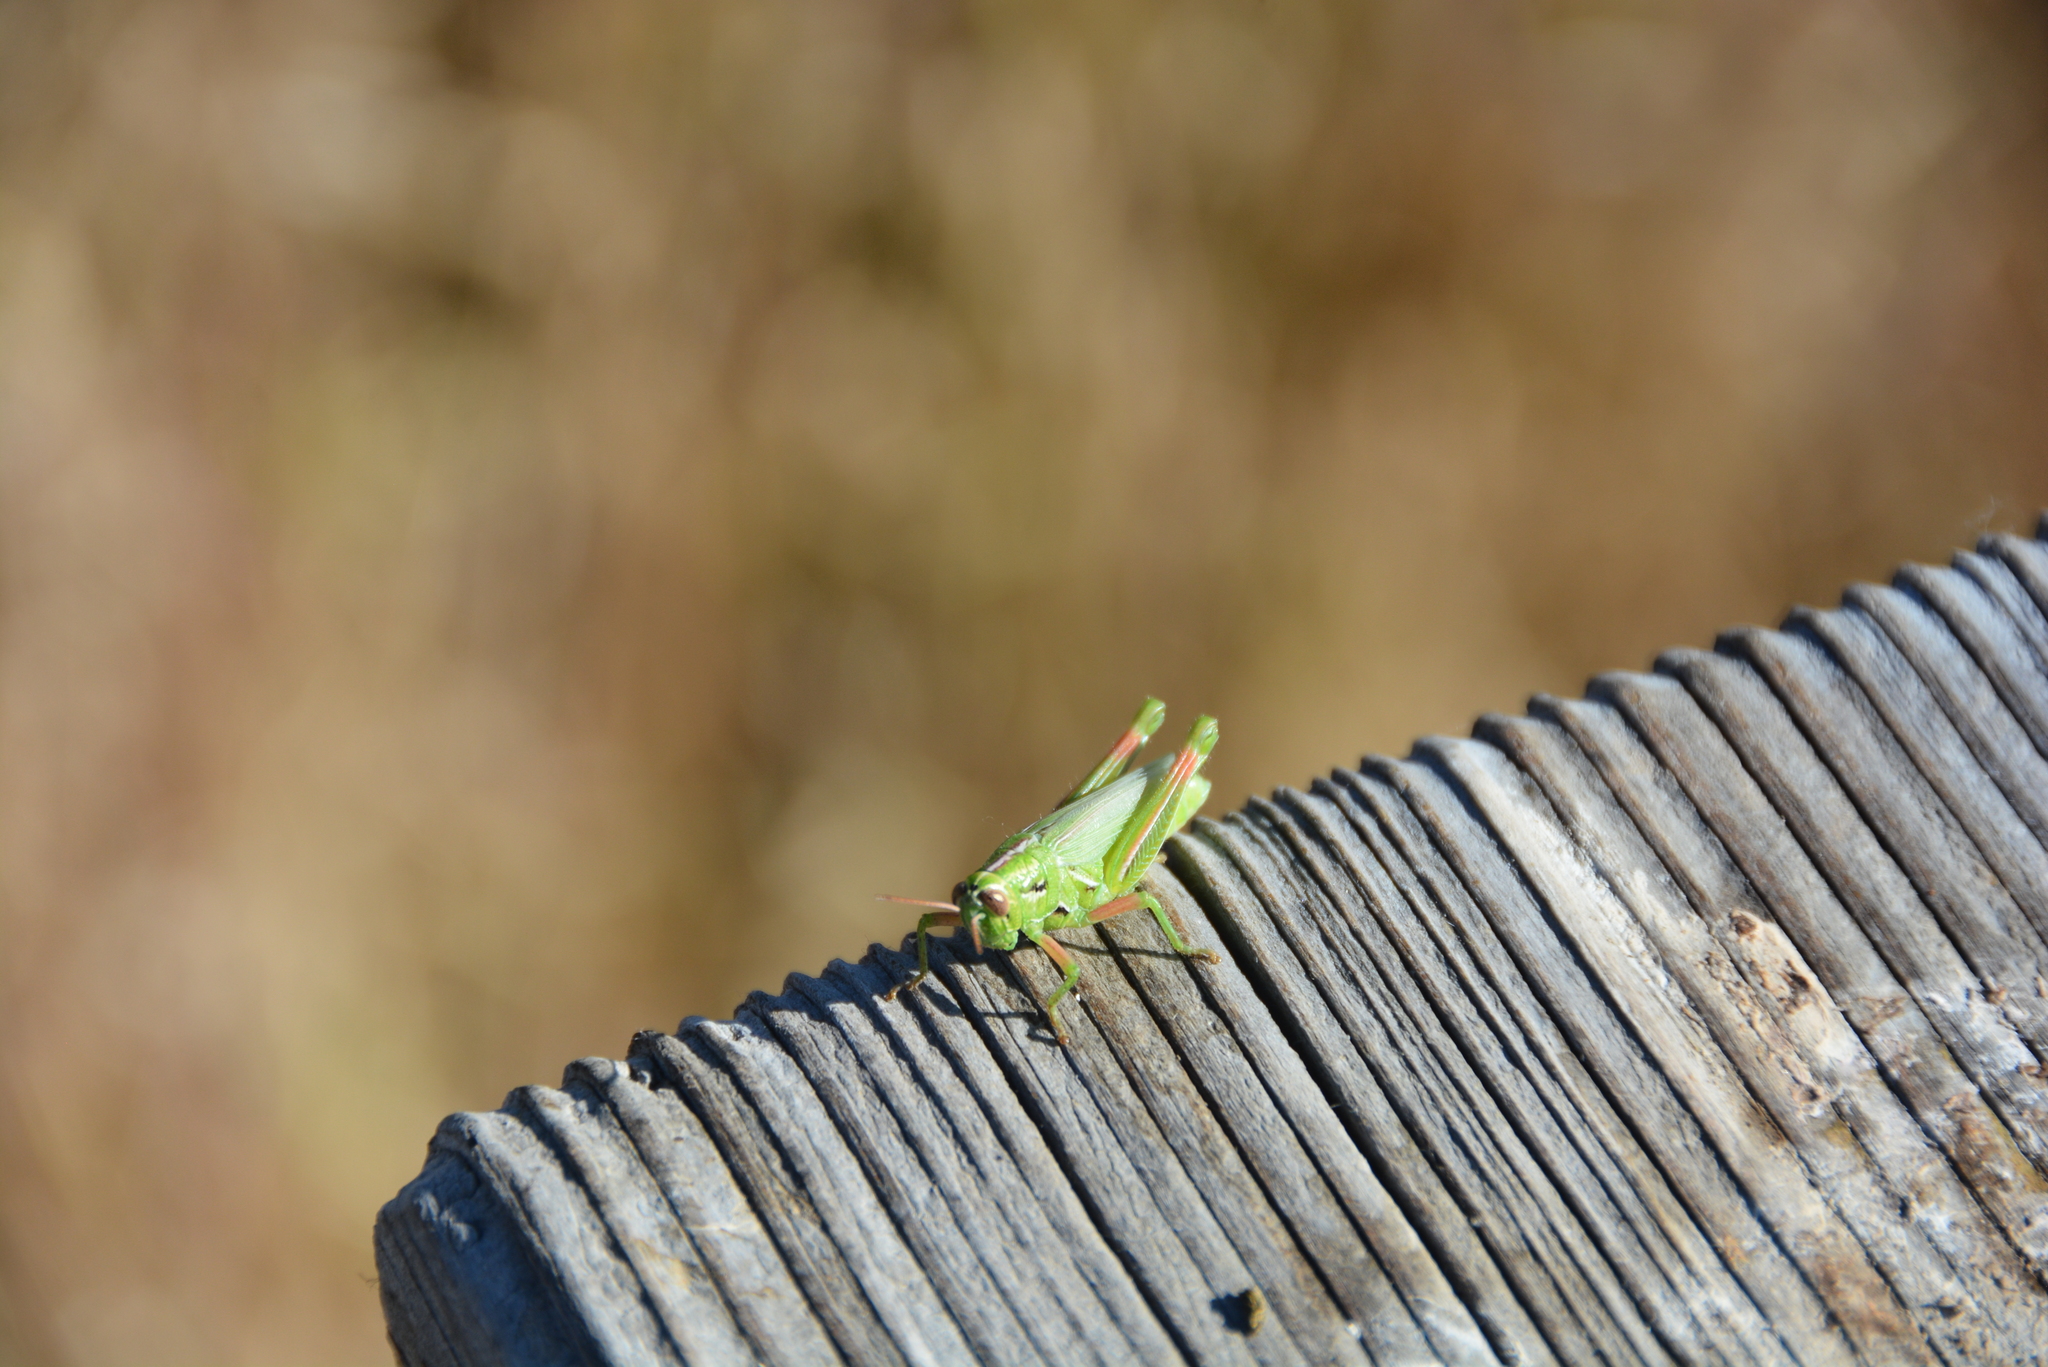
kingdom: Animalia
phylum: Arthropoda
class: Insecta
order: Orthoptera
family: Acrididae
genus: Hesperotettix
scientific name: Hesperotettix viridis
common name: Meadow purple-striped grasshopper
